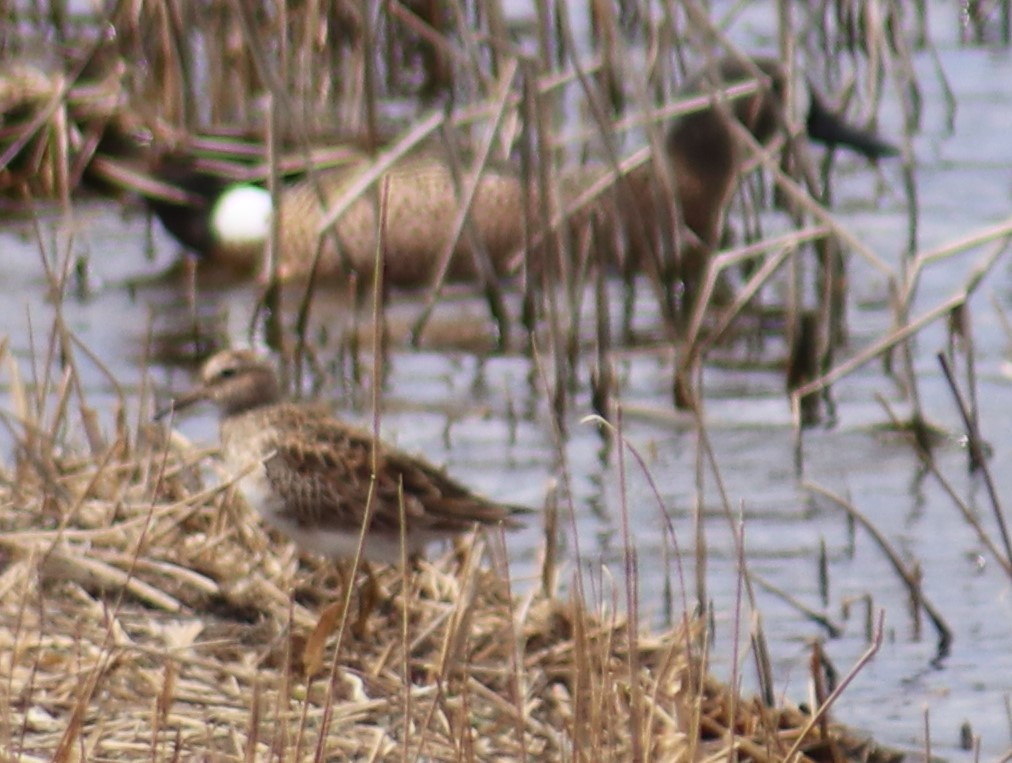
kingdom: Animalia
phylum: Chordata
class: Aves
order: Charadriiformes
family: Scolopacidae
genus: Calidris
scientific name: Calidris melanotos
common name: Pectoral sandpiper
